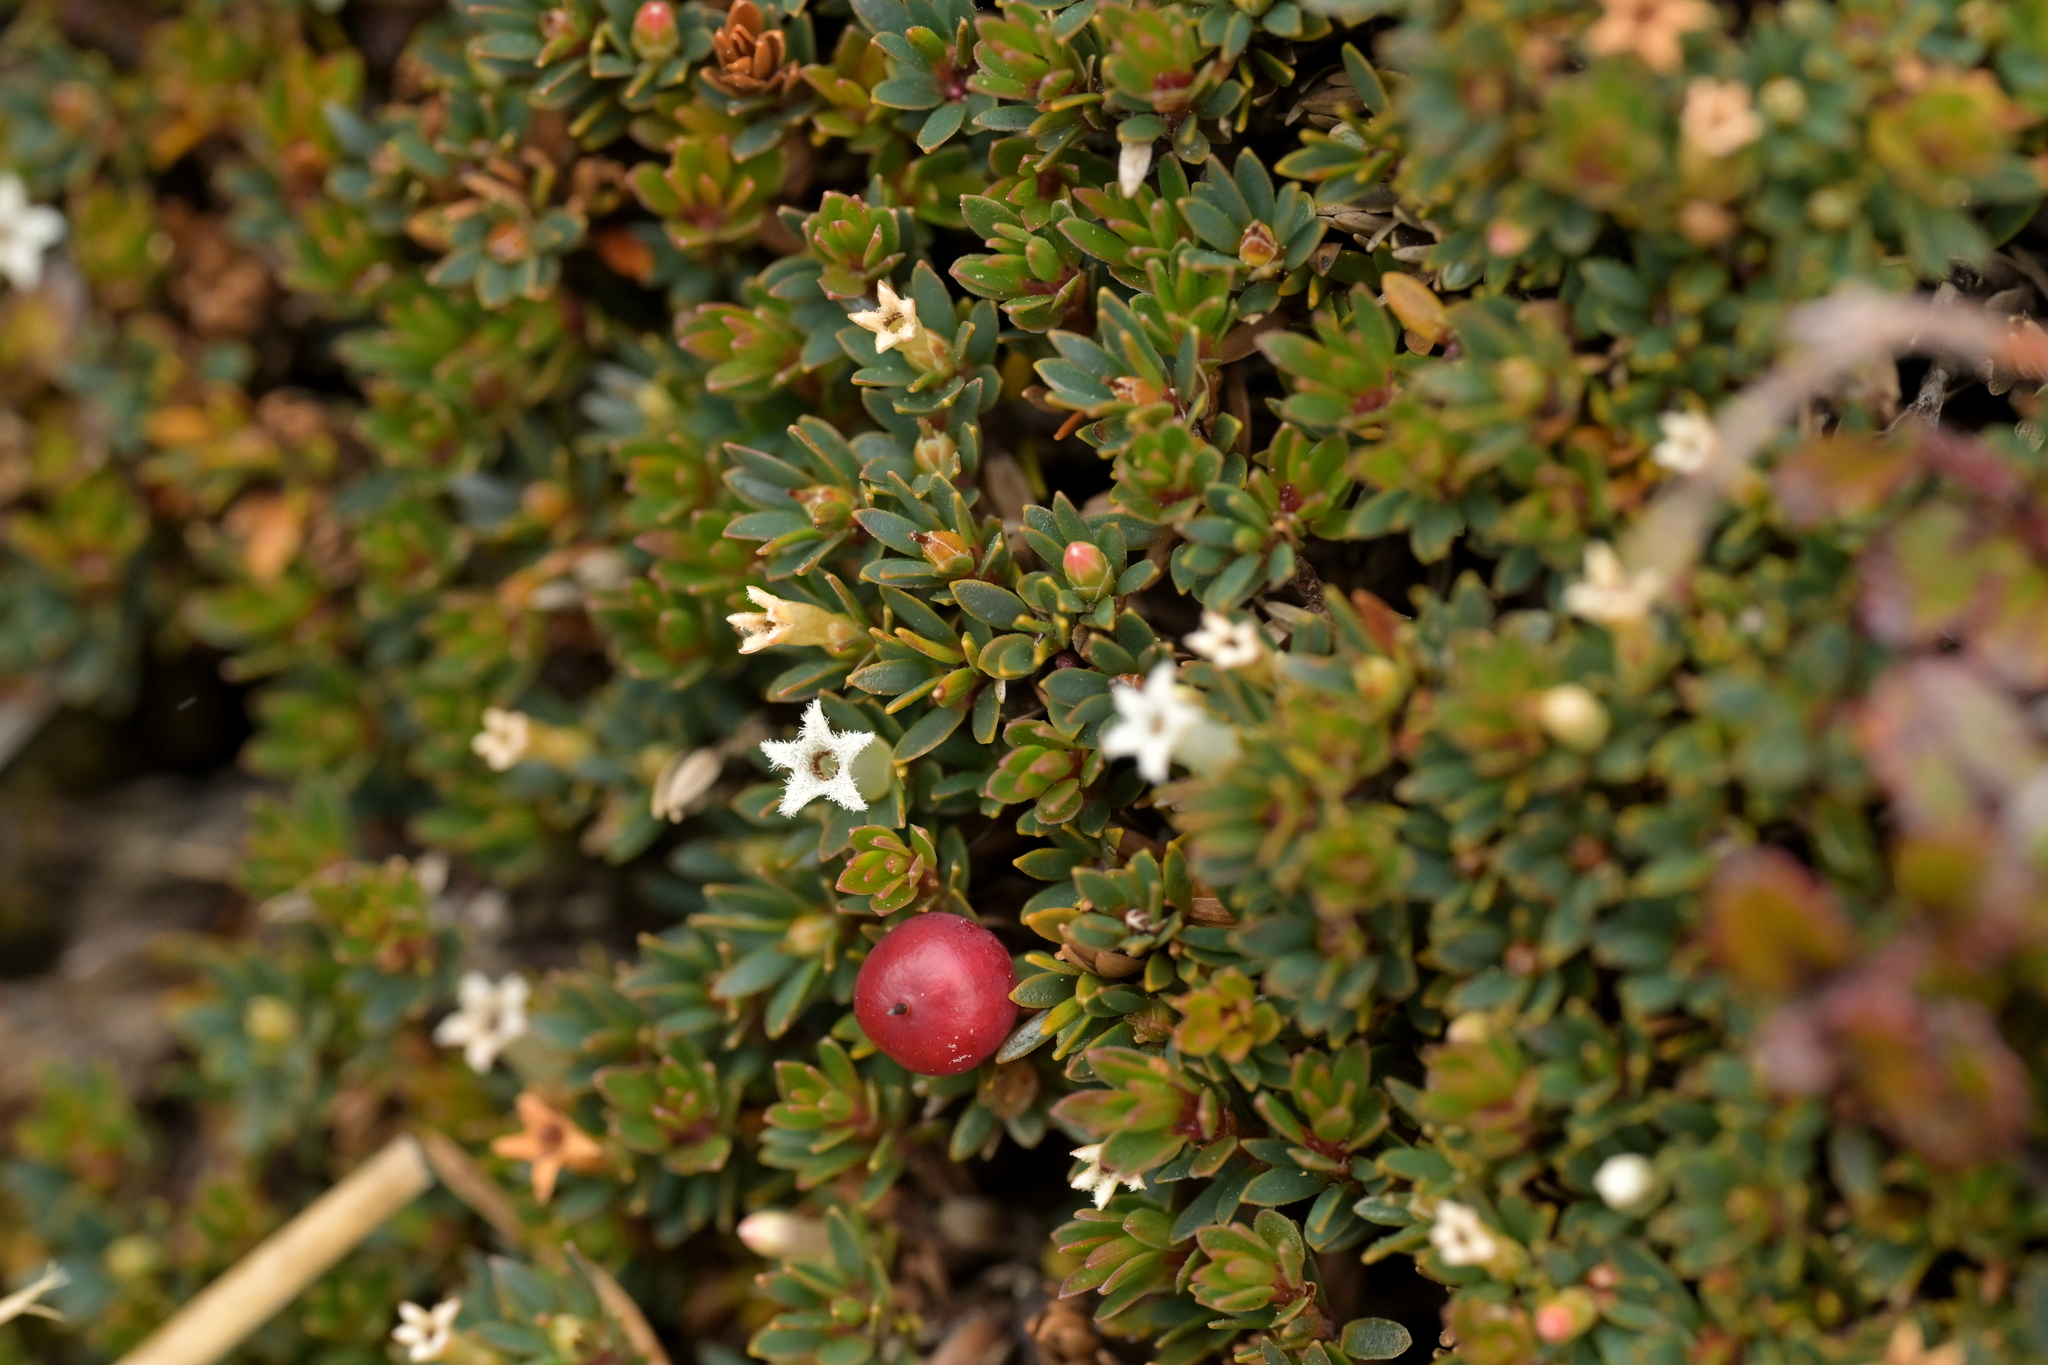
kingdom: Plantae
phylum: Tracheophyta
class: Magnoliopsida
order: Ericales
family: Ericaceae
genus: Pentachondra
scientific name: Pentachondra pumila
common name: Carpet-heath
